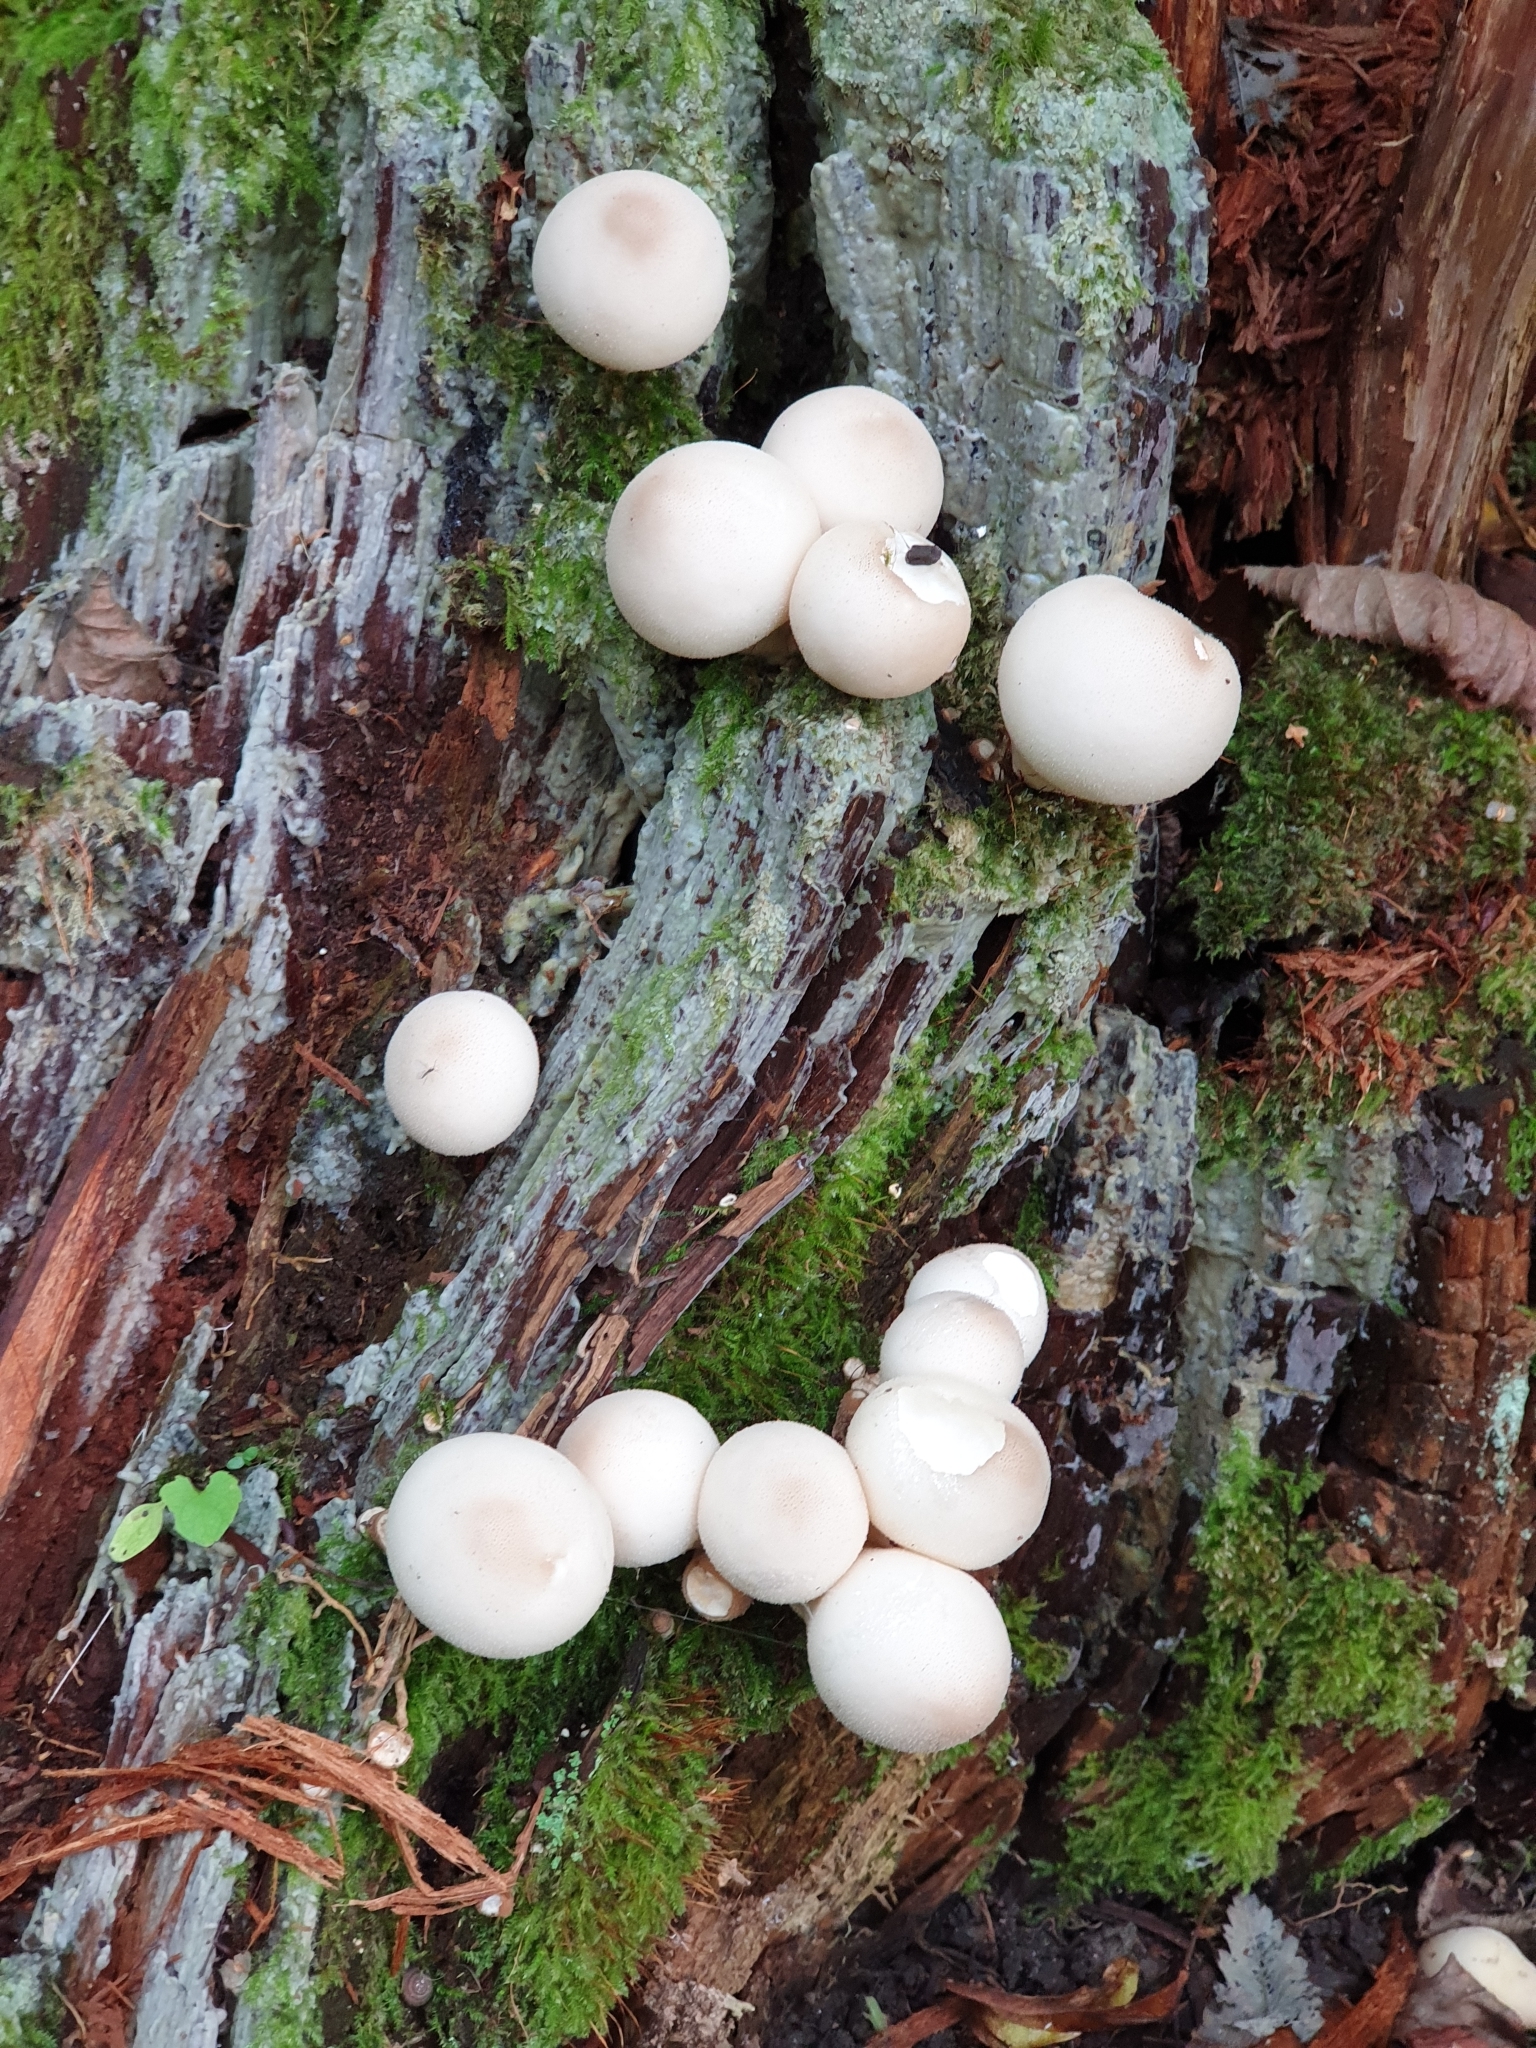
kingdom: Fungi
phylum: Basidiomycota
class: Agaricomycetes
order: Agaricales
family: Lycoperdaceae
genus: Apioperdon
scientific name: Apioperdon pyriforme
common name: Pear-shaped puffball
